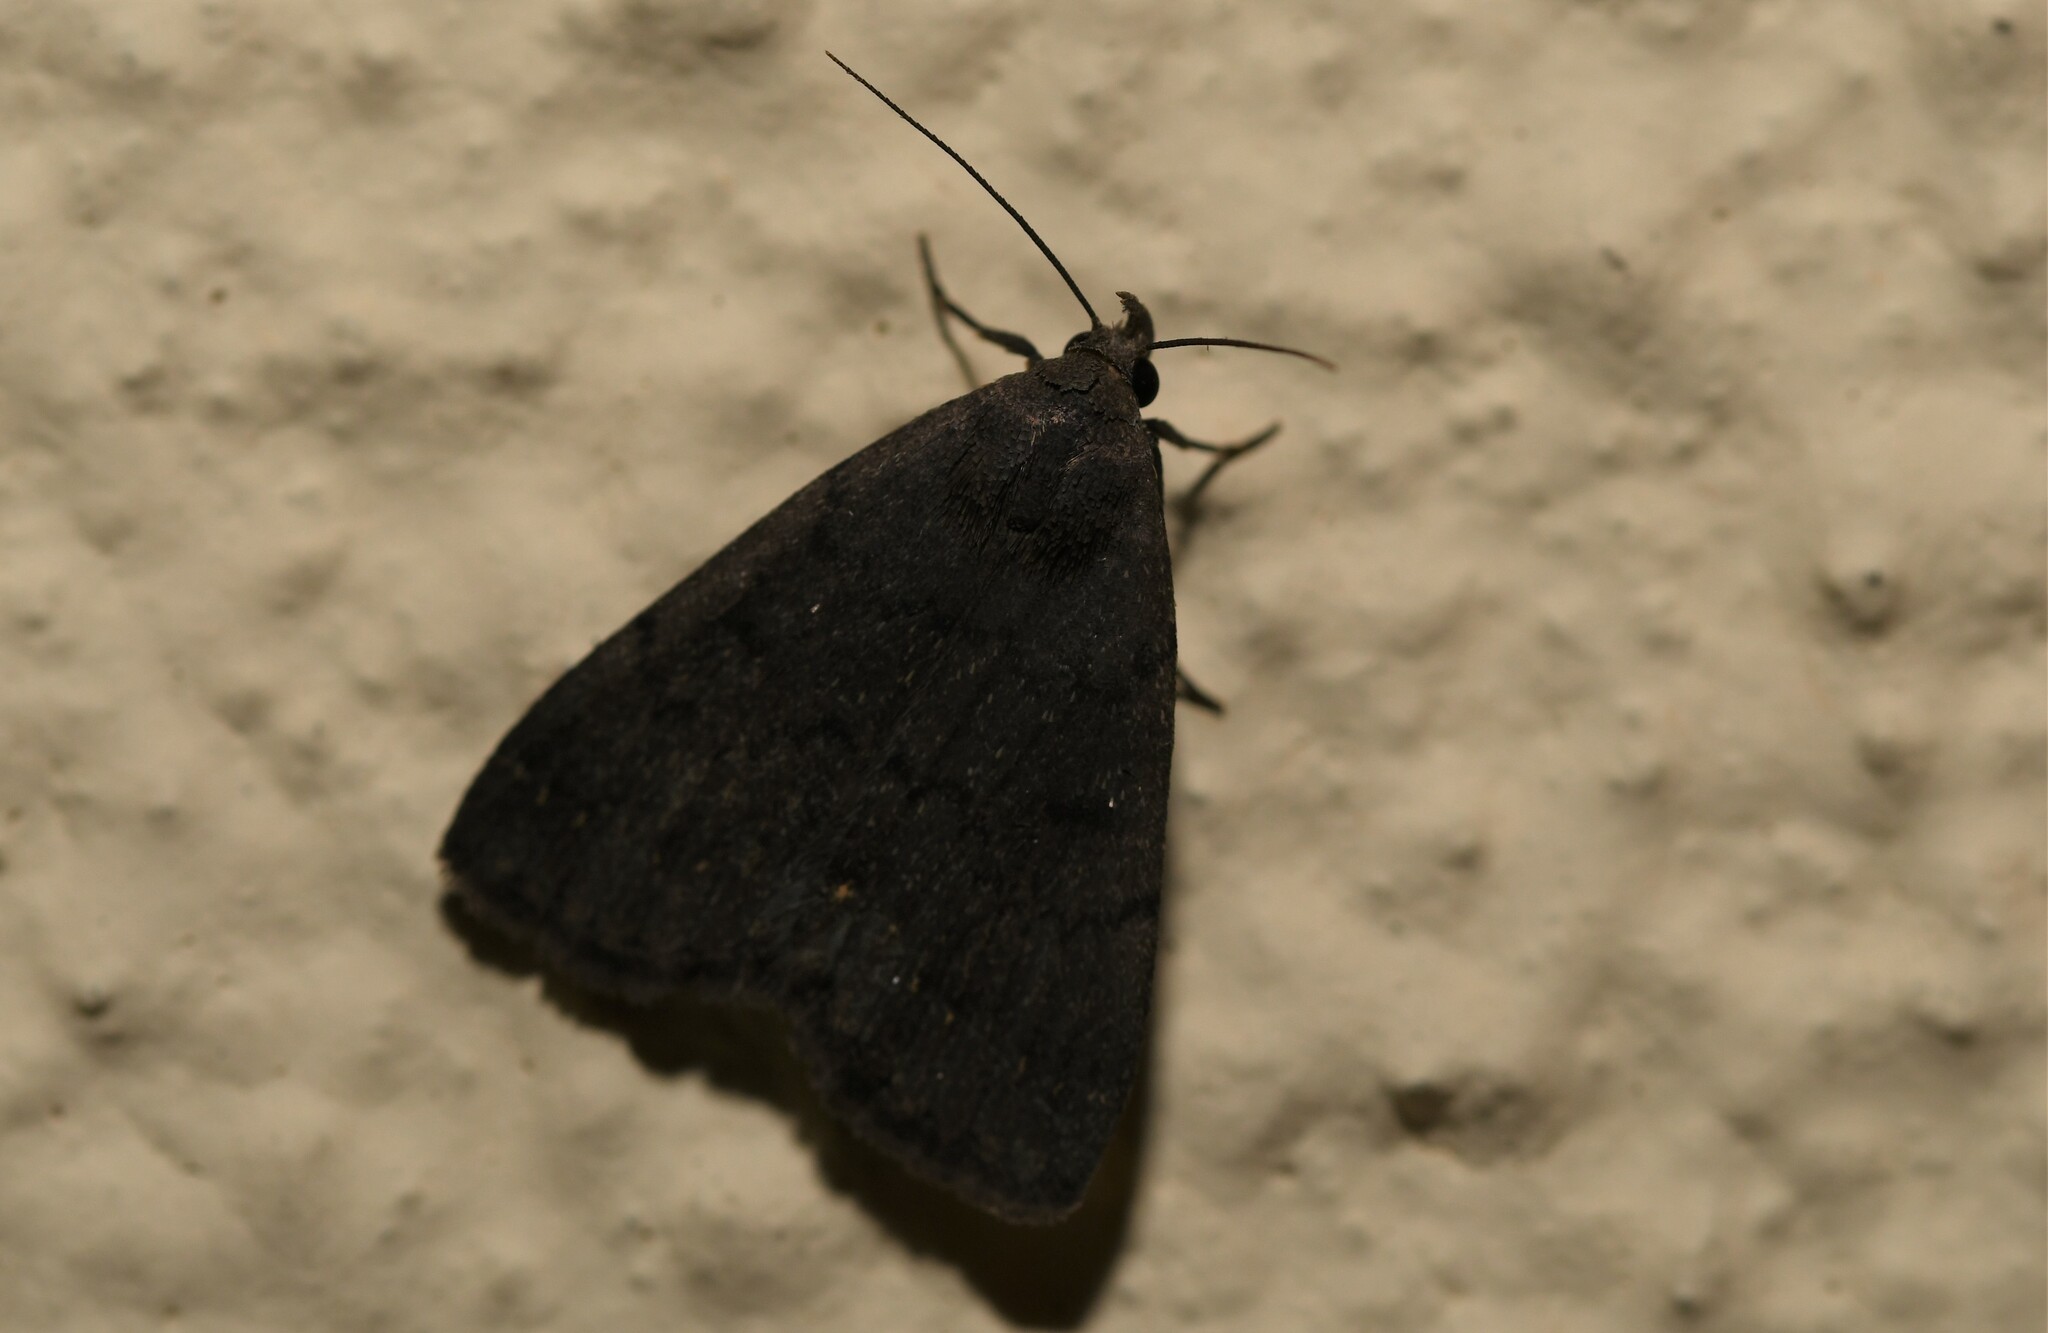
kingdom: Animalia
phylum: Arthropoda
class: Insecta
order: Lepidoptera
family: Erebidae
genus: Nodaria
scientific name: Nodaria nodosalis
